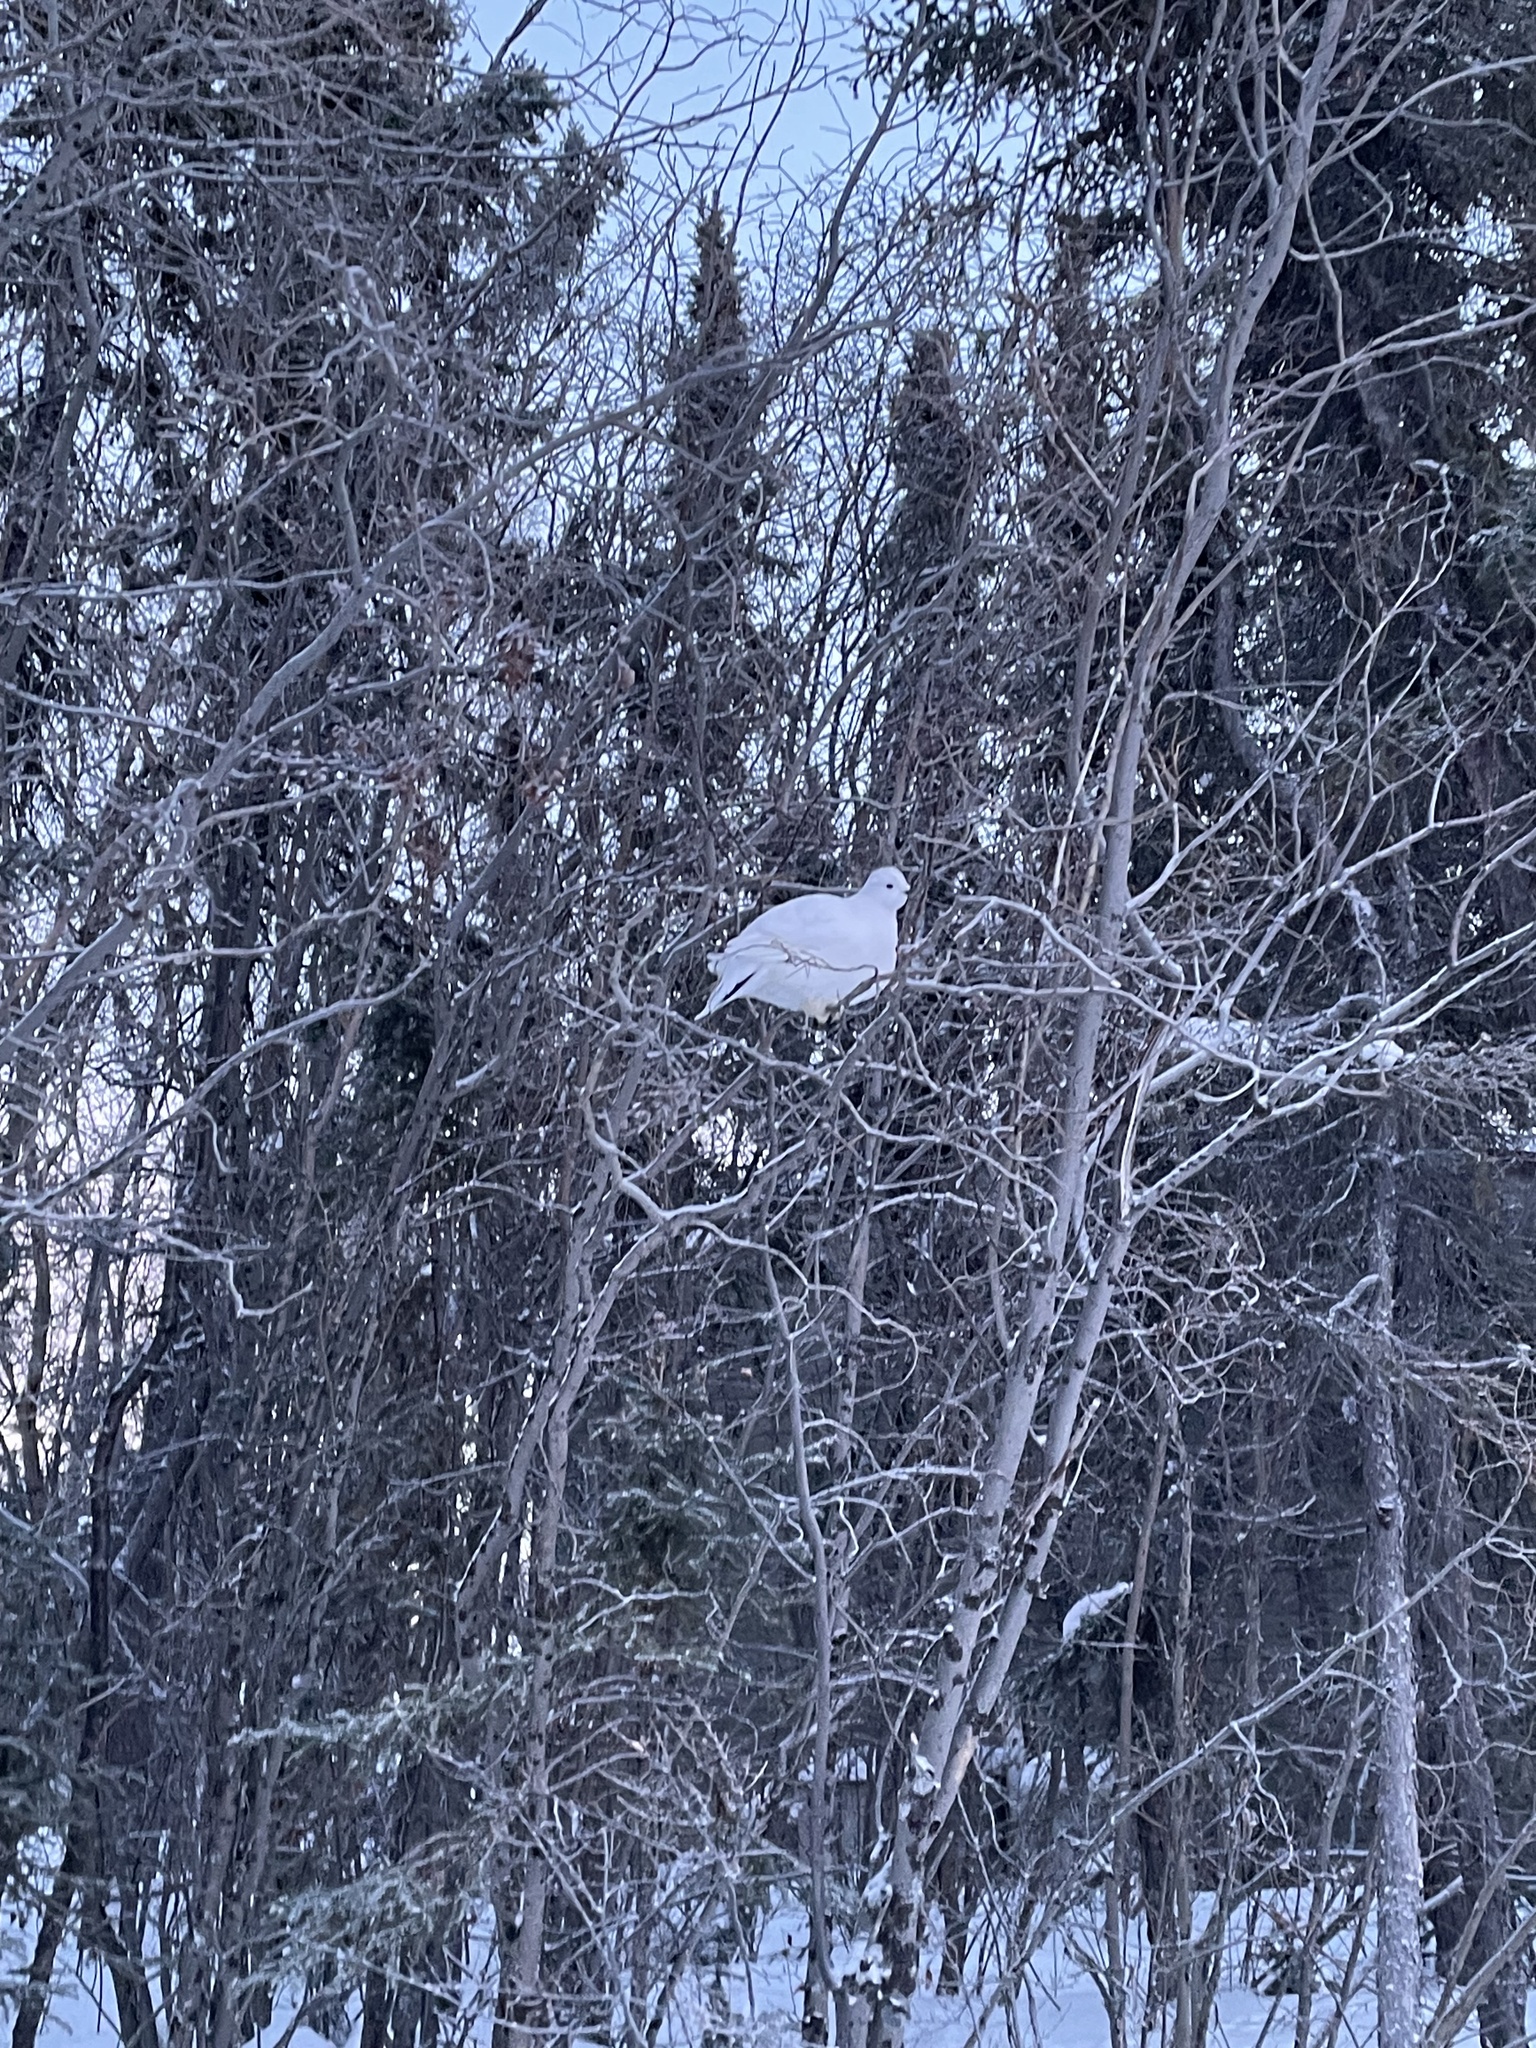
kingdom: Animalia
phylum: Chordata
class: Aves
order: Galliformes
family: Phasianidae
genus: Lagopus
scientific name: Lagopus lagopus
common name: Willow ptarmigan
